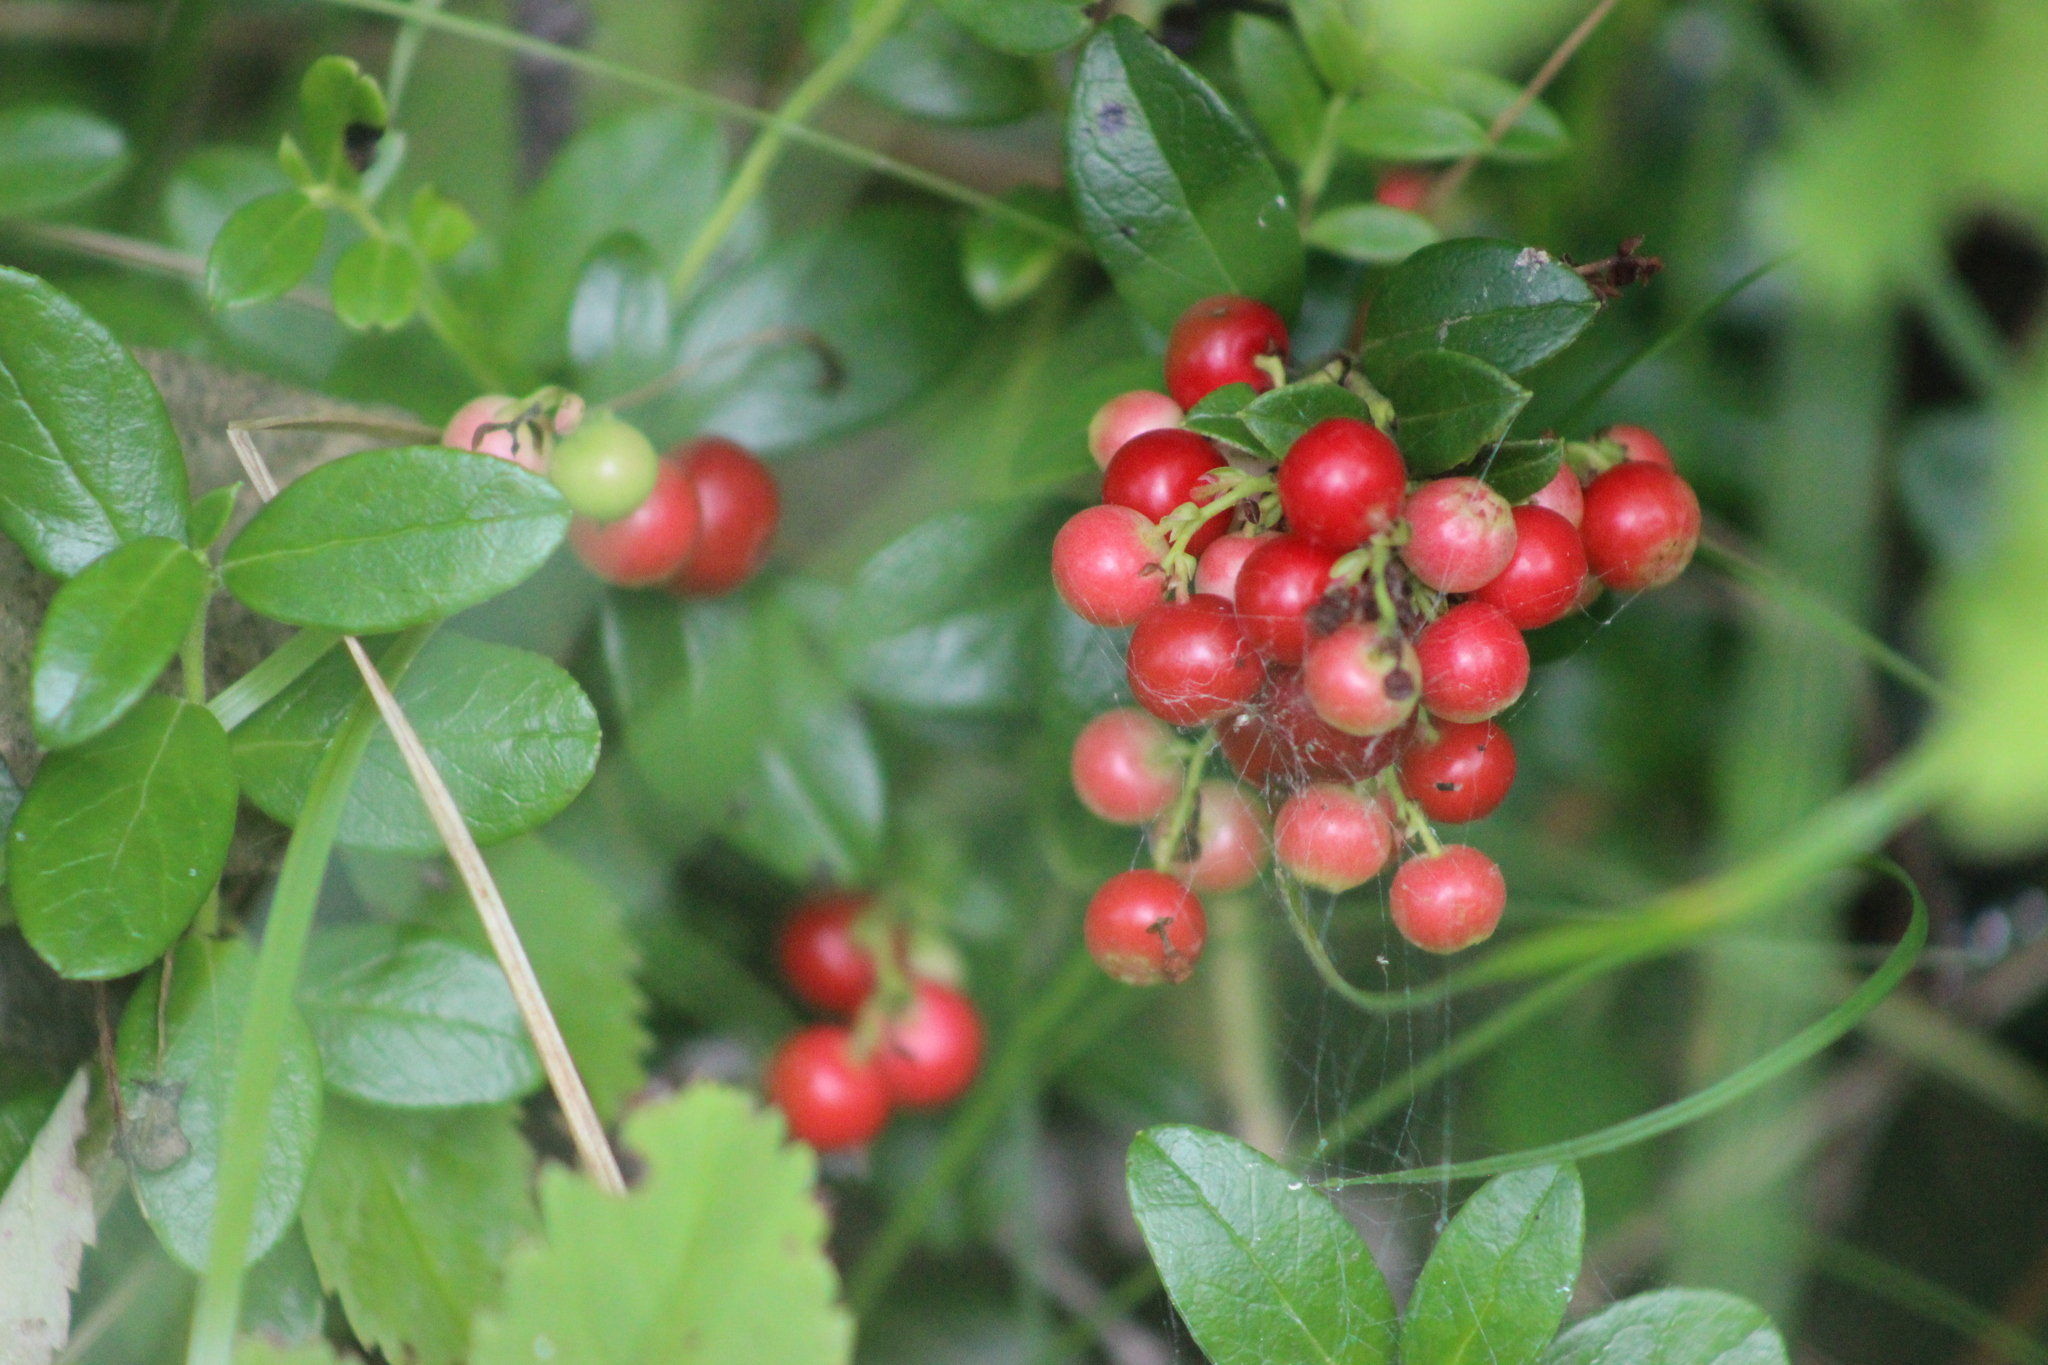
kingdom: Plantae
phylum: Tracheophyta
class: Magnoliopsida
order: Ericales
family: Ericaceae
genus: Vaccinium
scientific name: Vaccinium vitis-idaea
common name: Cowberry
